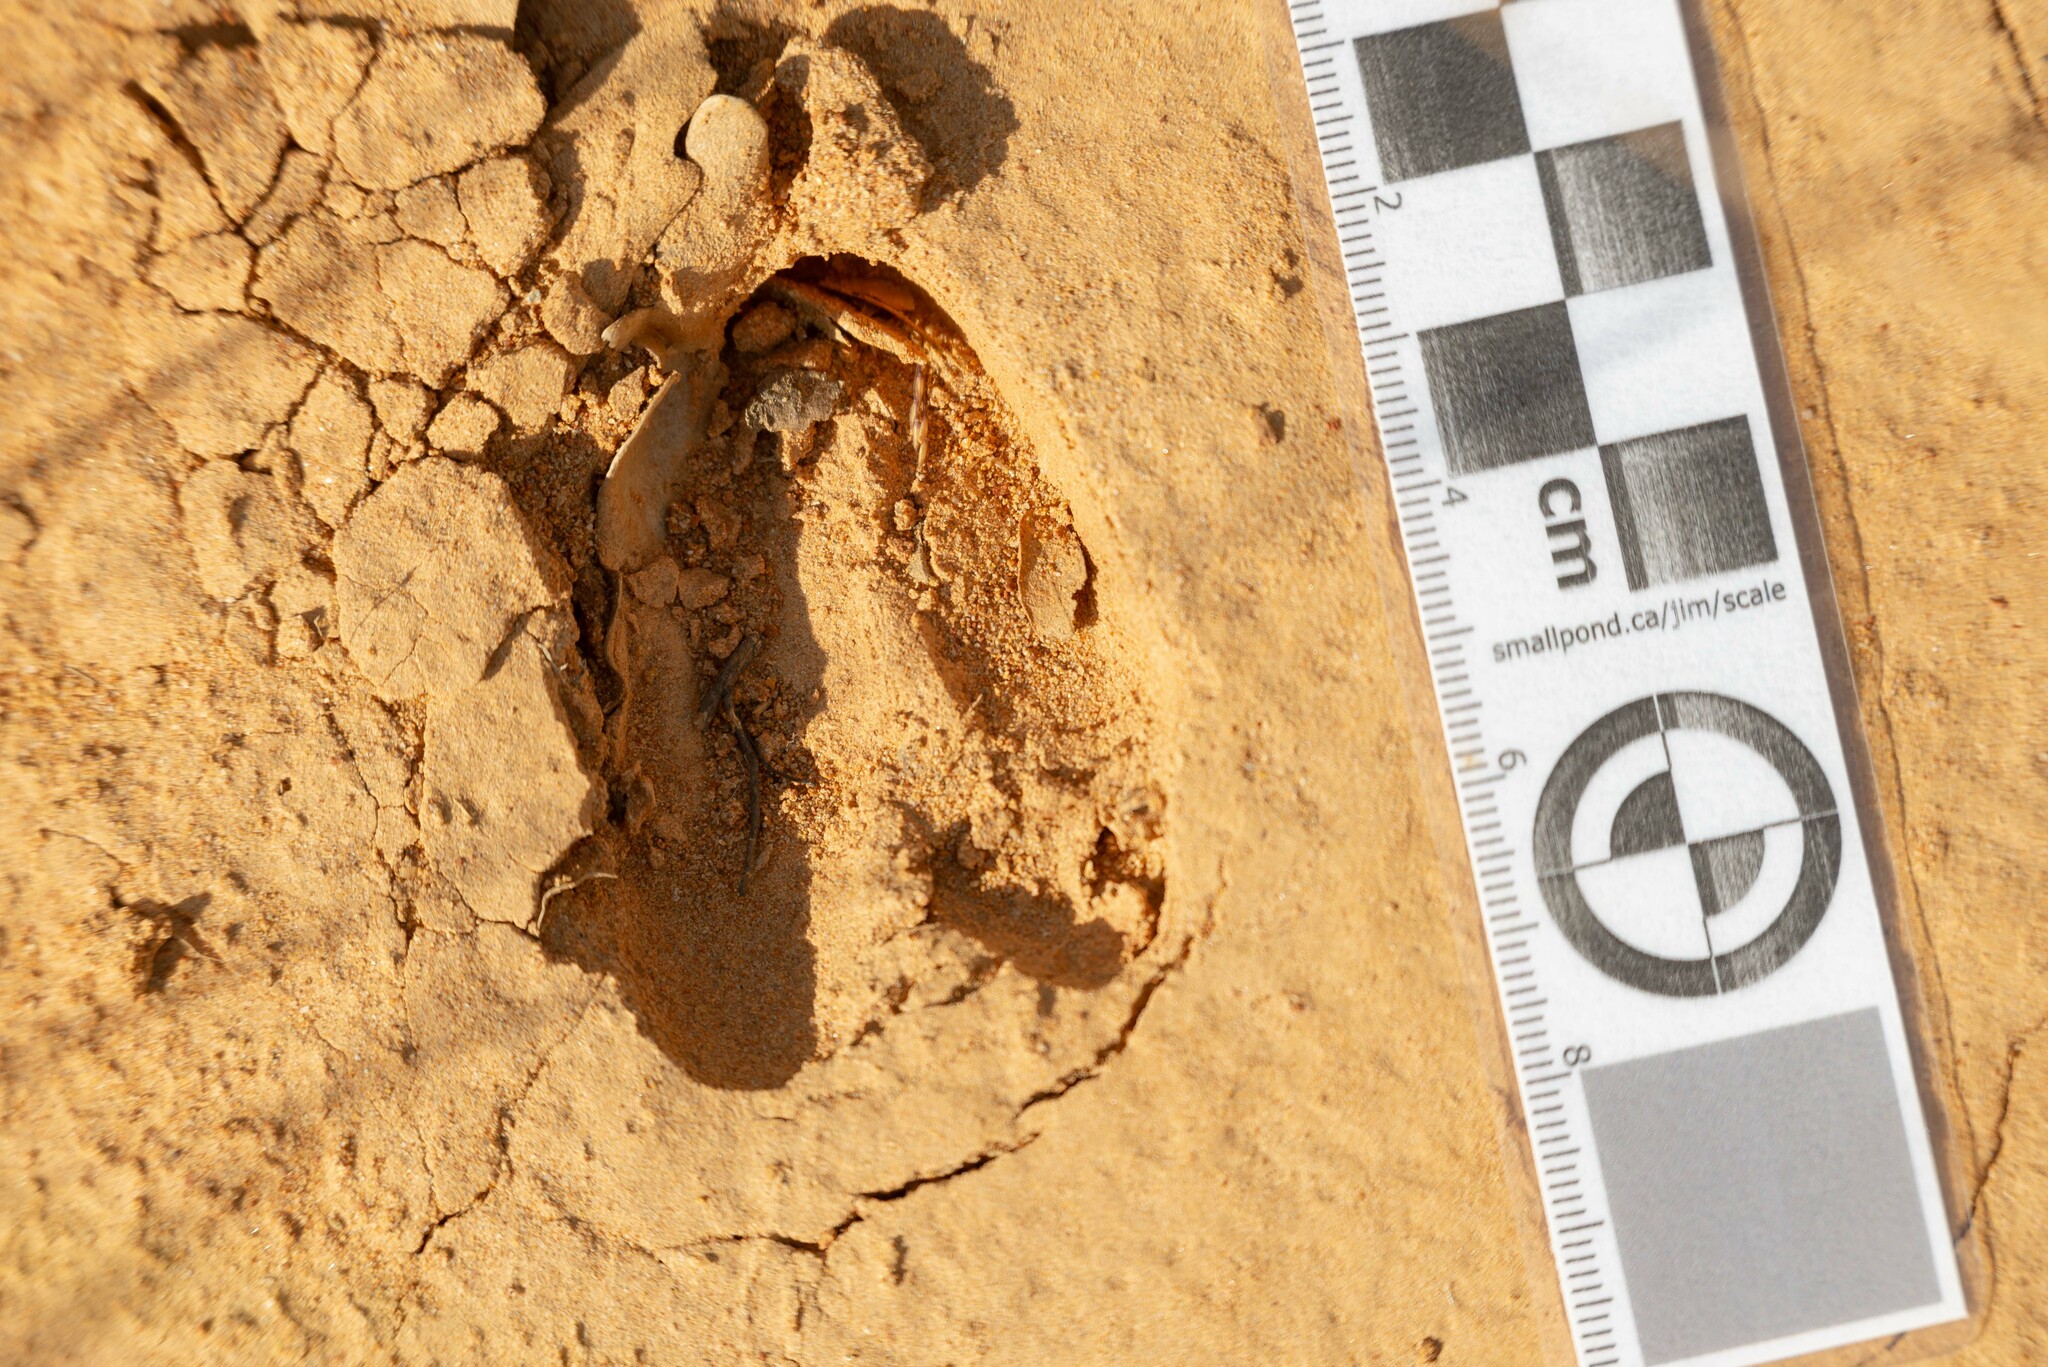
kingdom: Animalia
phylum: Chordata
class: Mammalia
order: Artiodactyla
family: Cervidae
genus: Capreolus
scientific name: Capreolus capreolus
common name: Western roe deer
